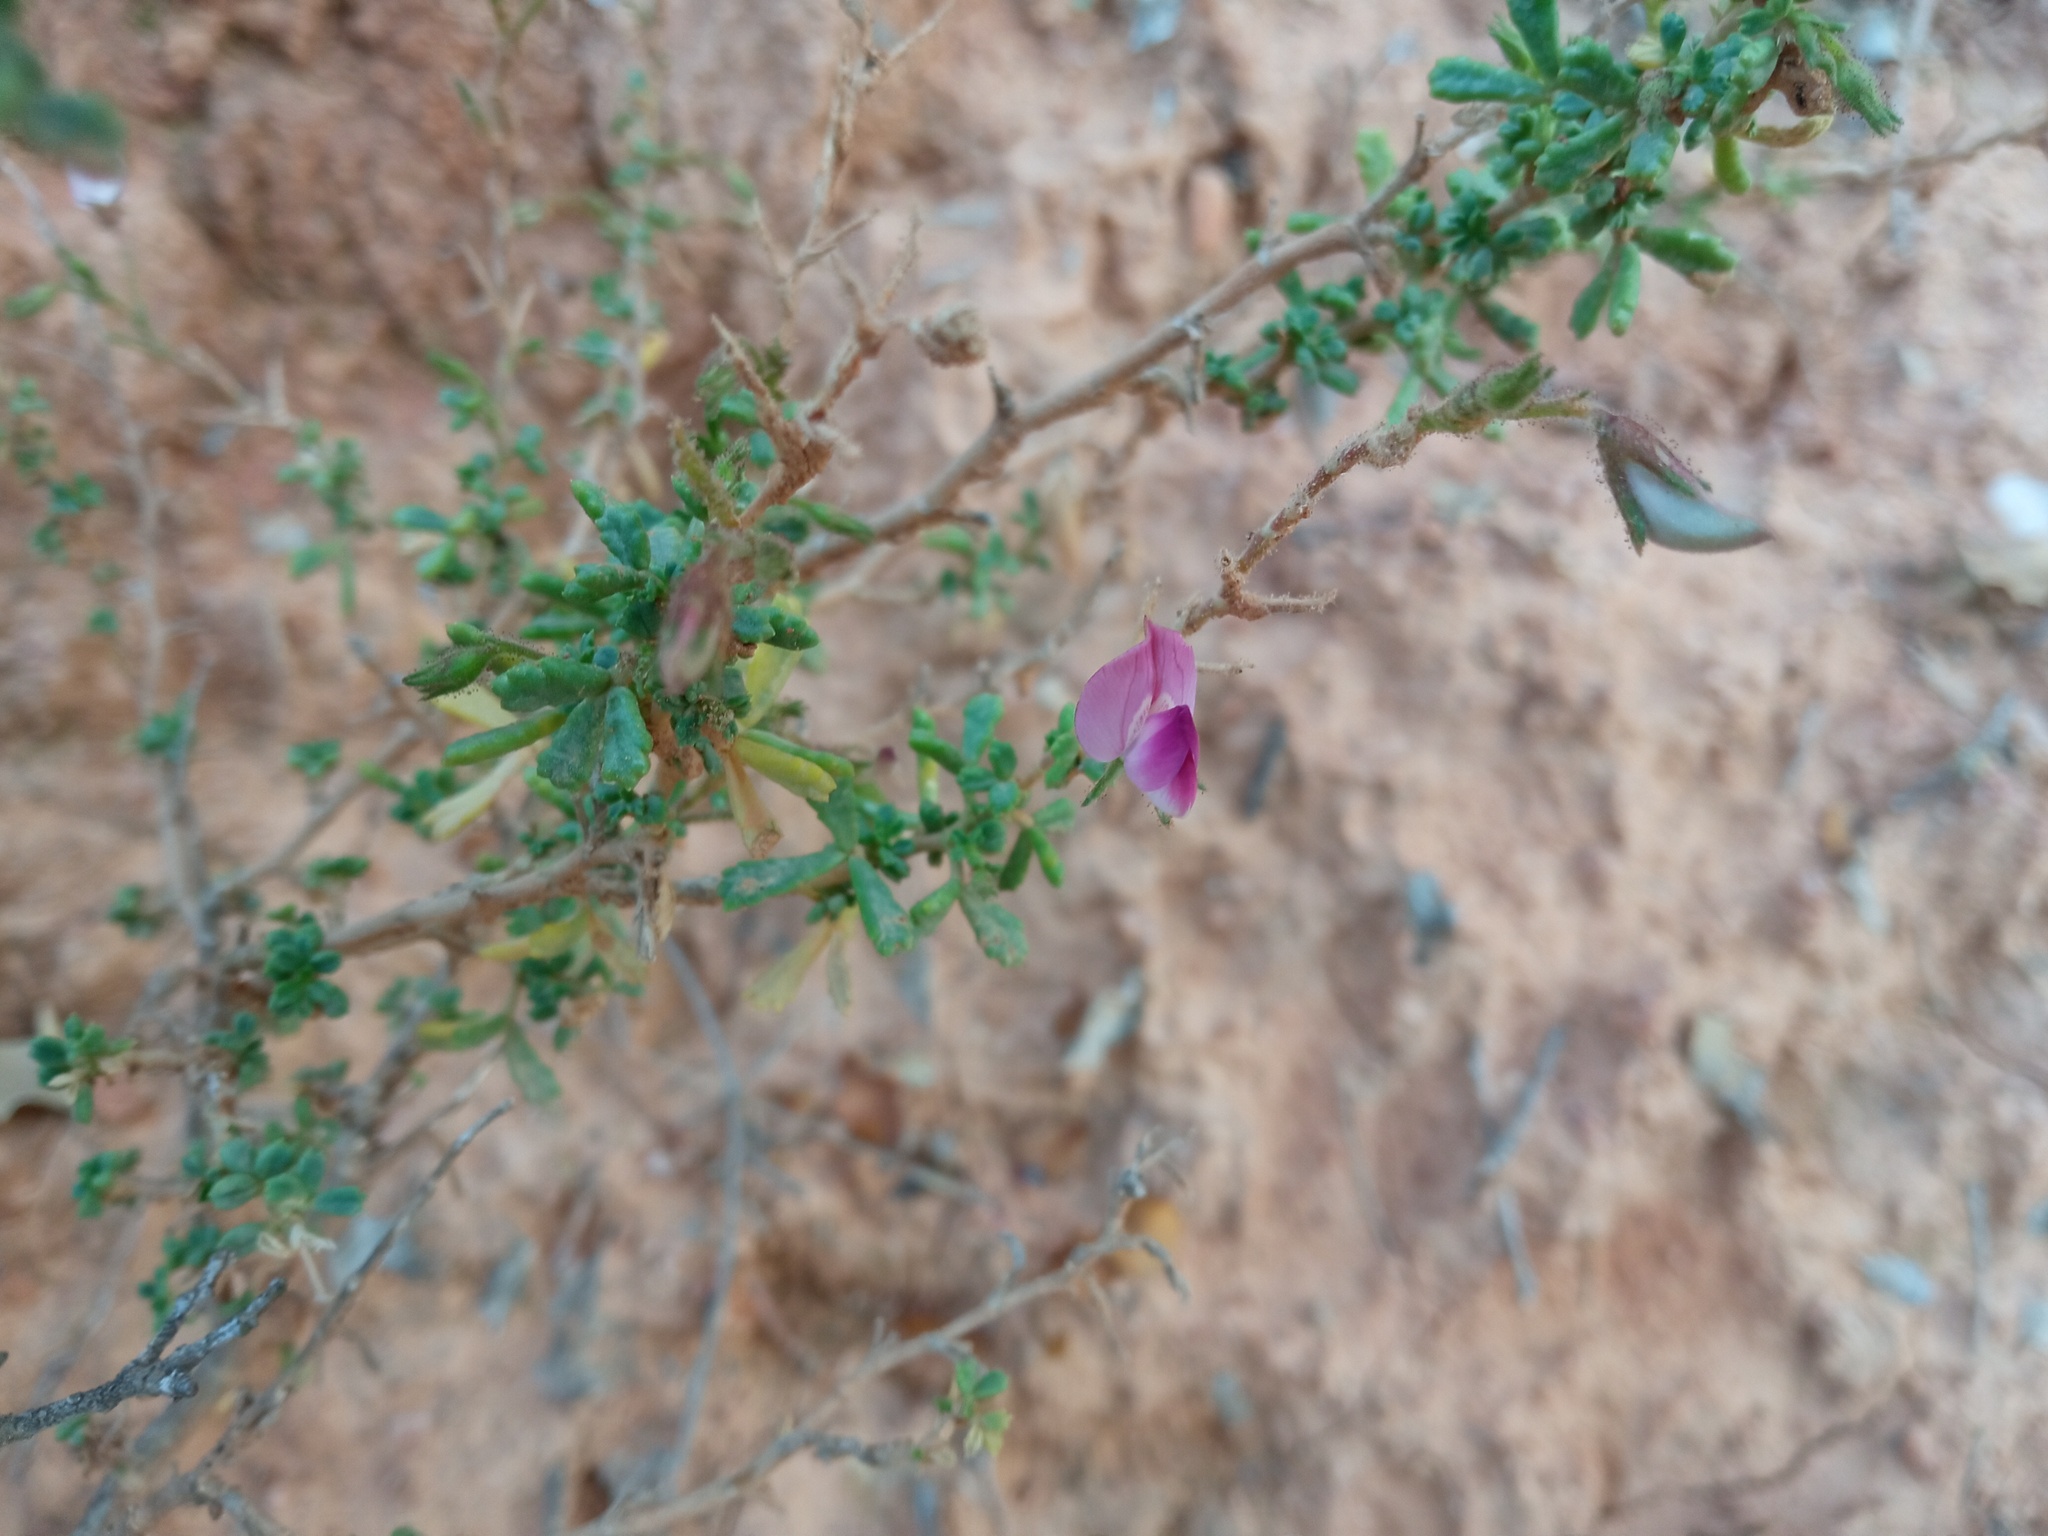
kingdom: Plantae
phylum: Tracheophyta
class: Magnoliopsida
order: Fabales
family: Fabaceae
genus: Ononis
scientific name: Ononis tridentata
